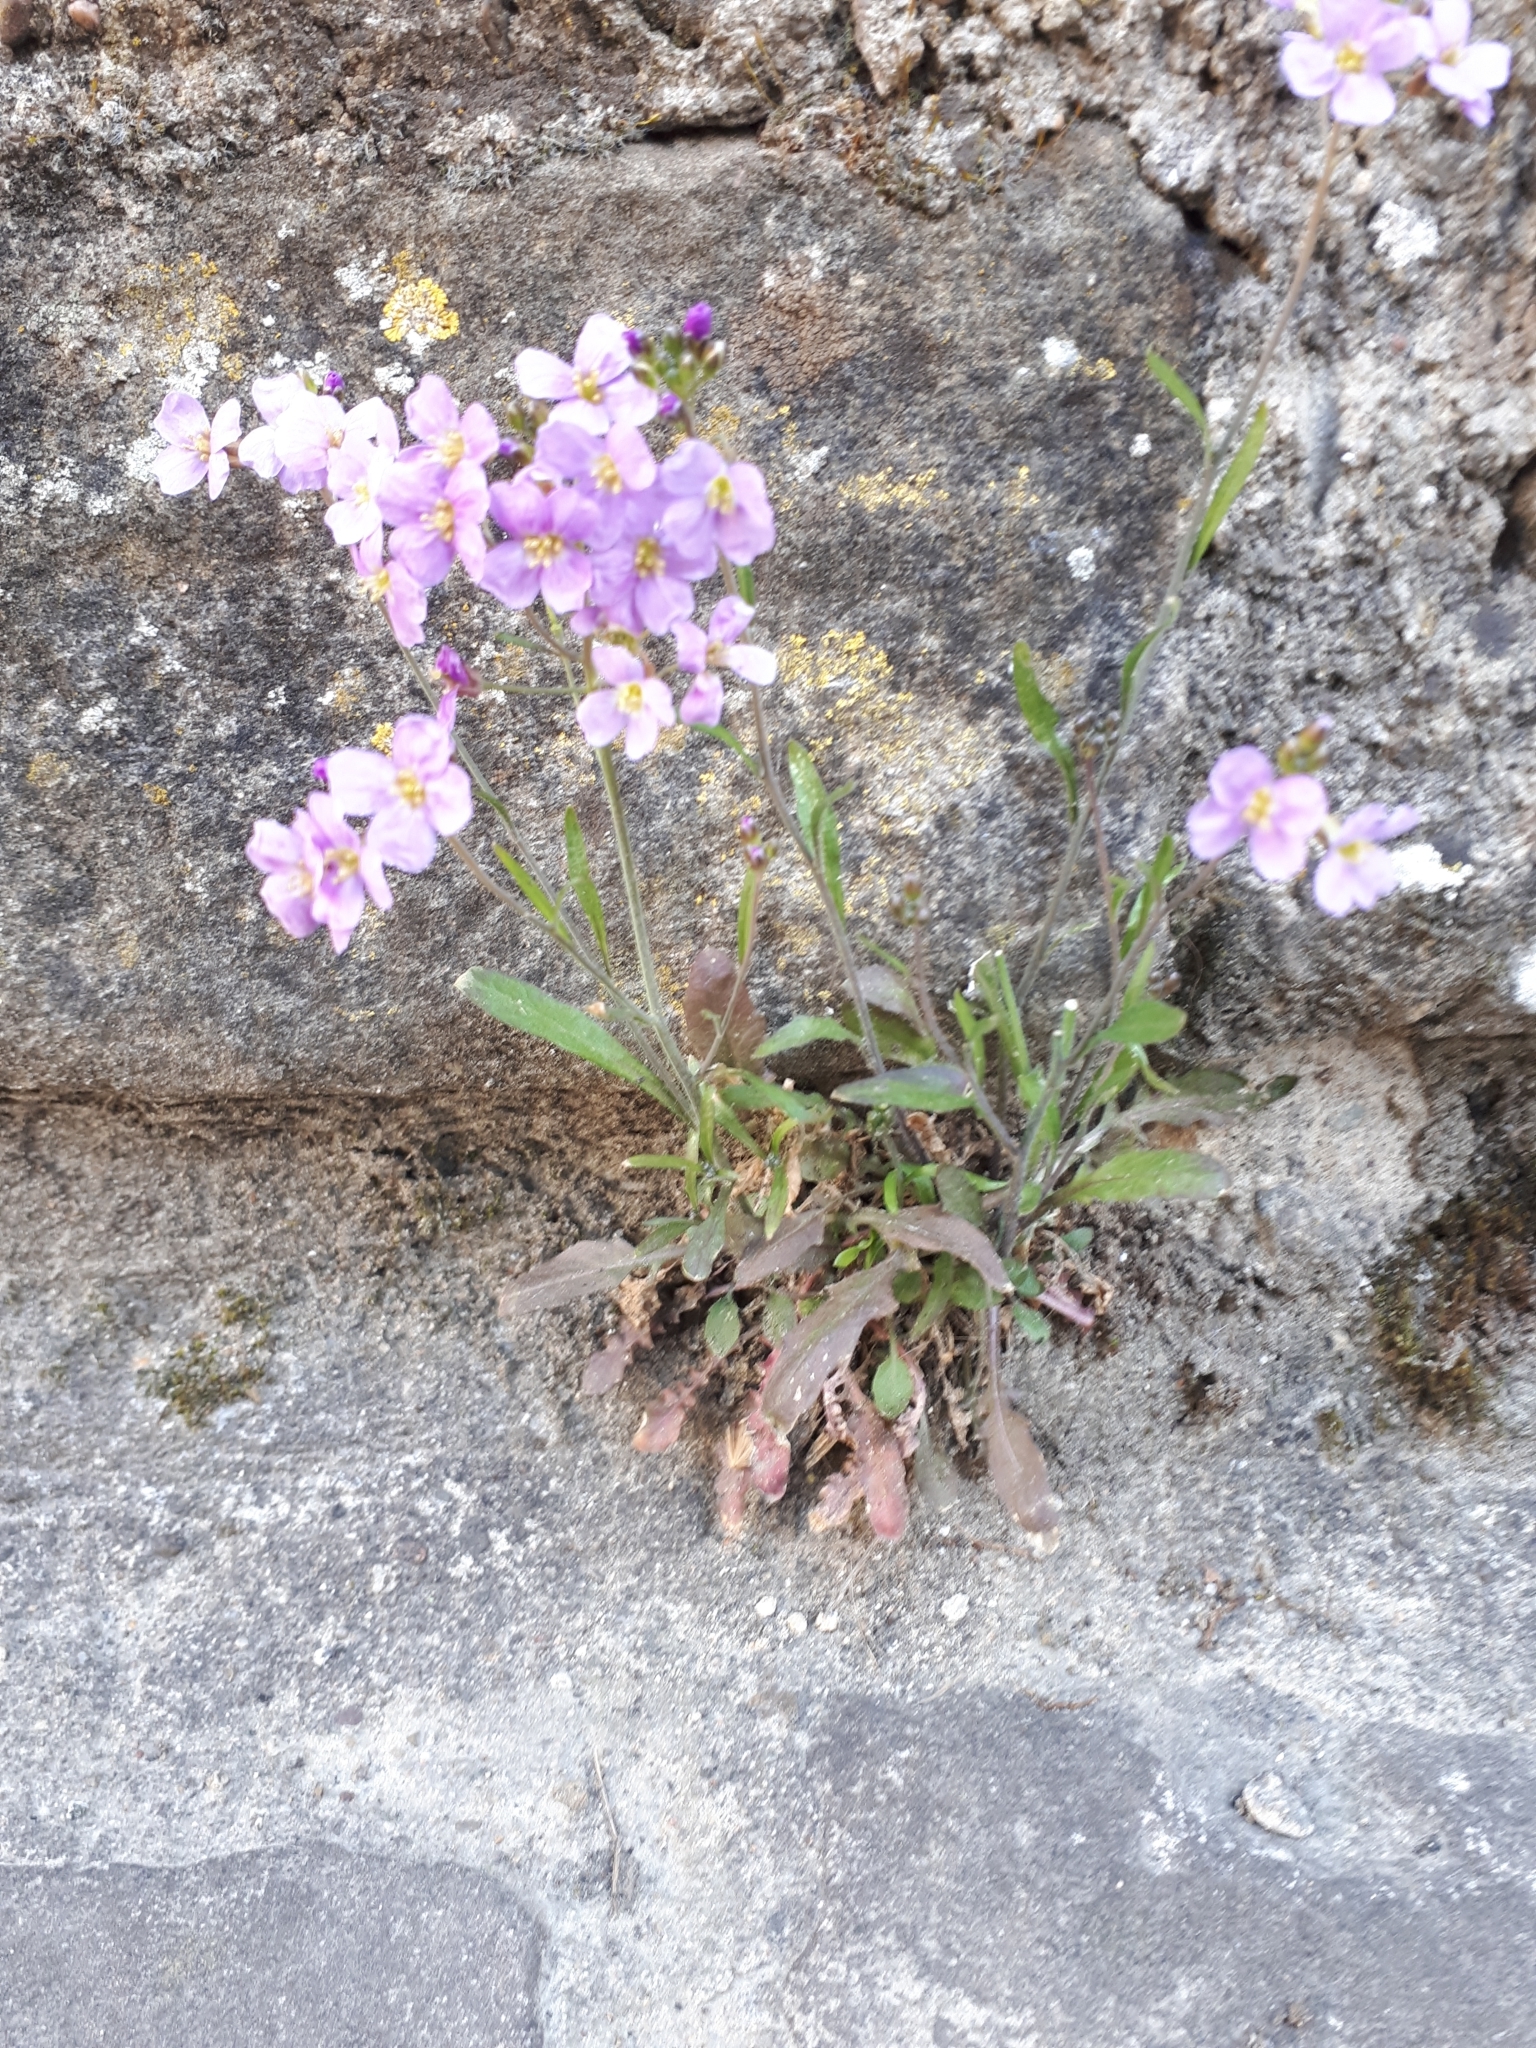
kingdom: Plantae
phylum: Tracheophyta
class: Magnoliopsida
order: Brassicales
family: Brassicaceae
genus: Arabidopsis
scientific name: Arabidopsis arenosa
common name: Sand rock-cress
